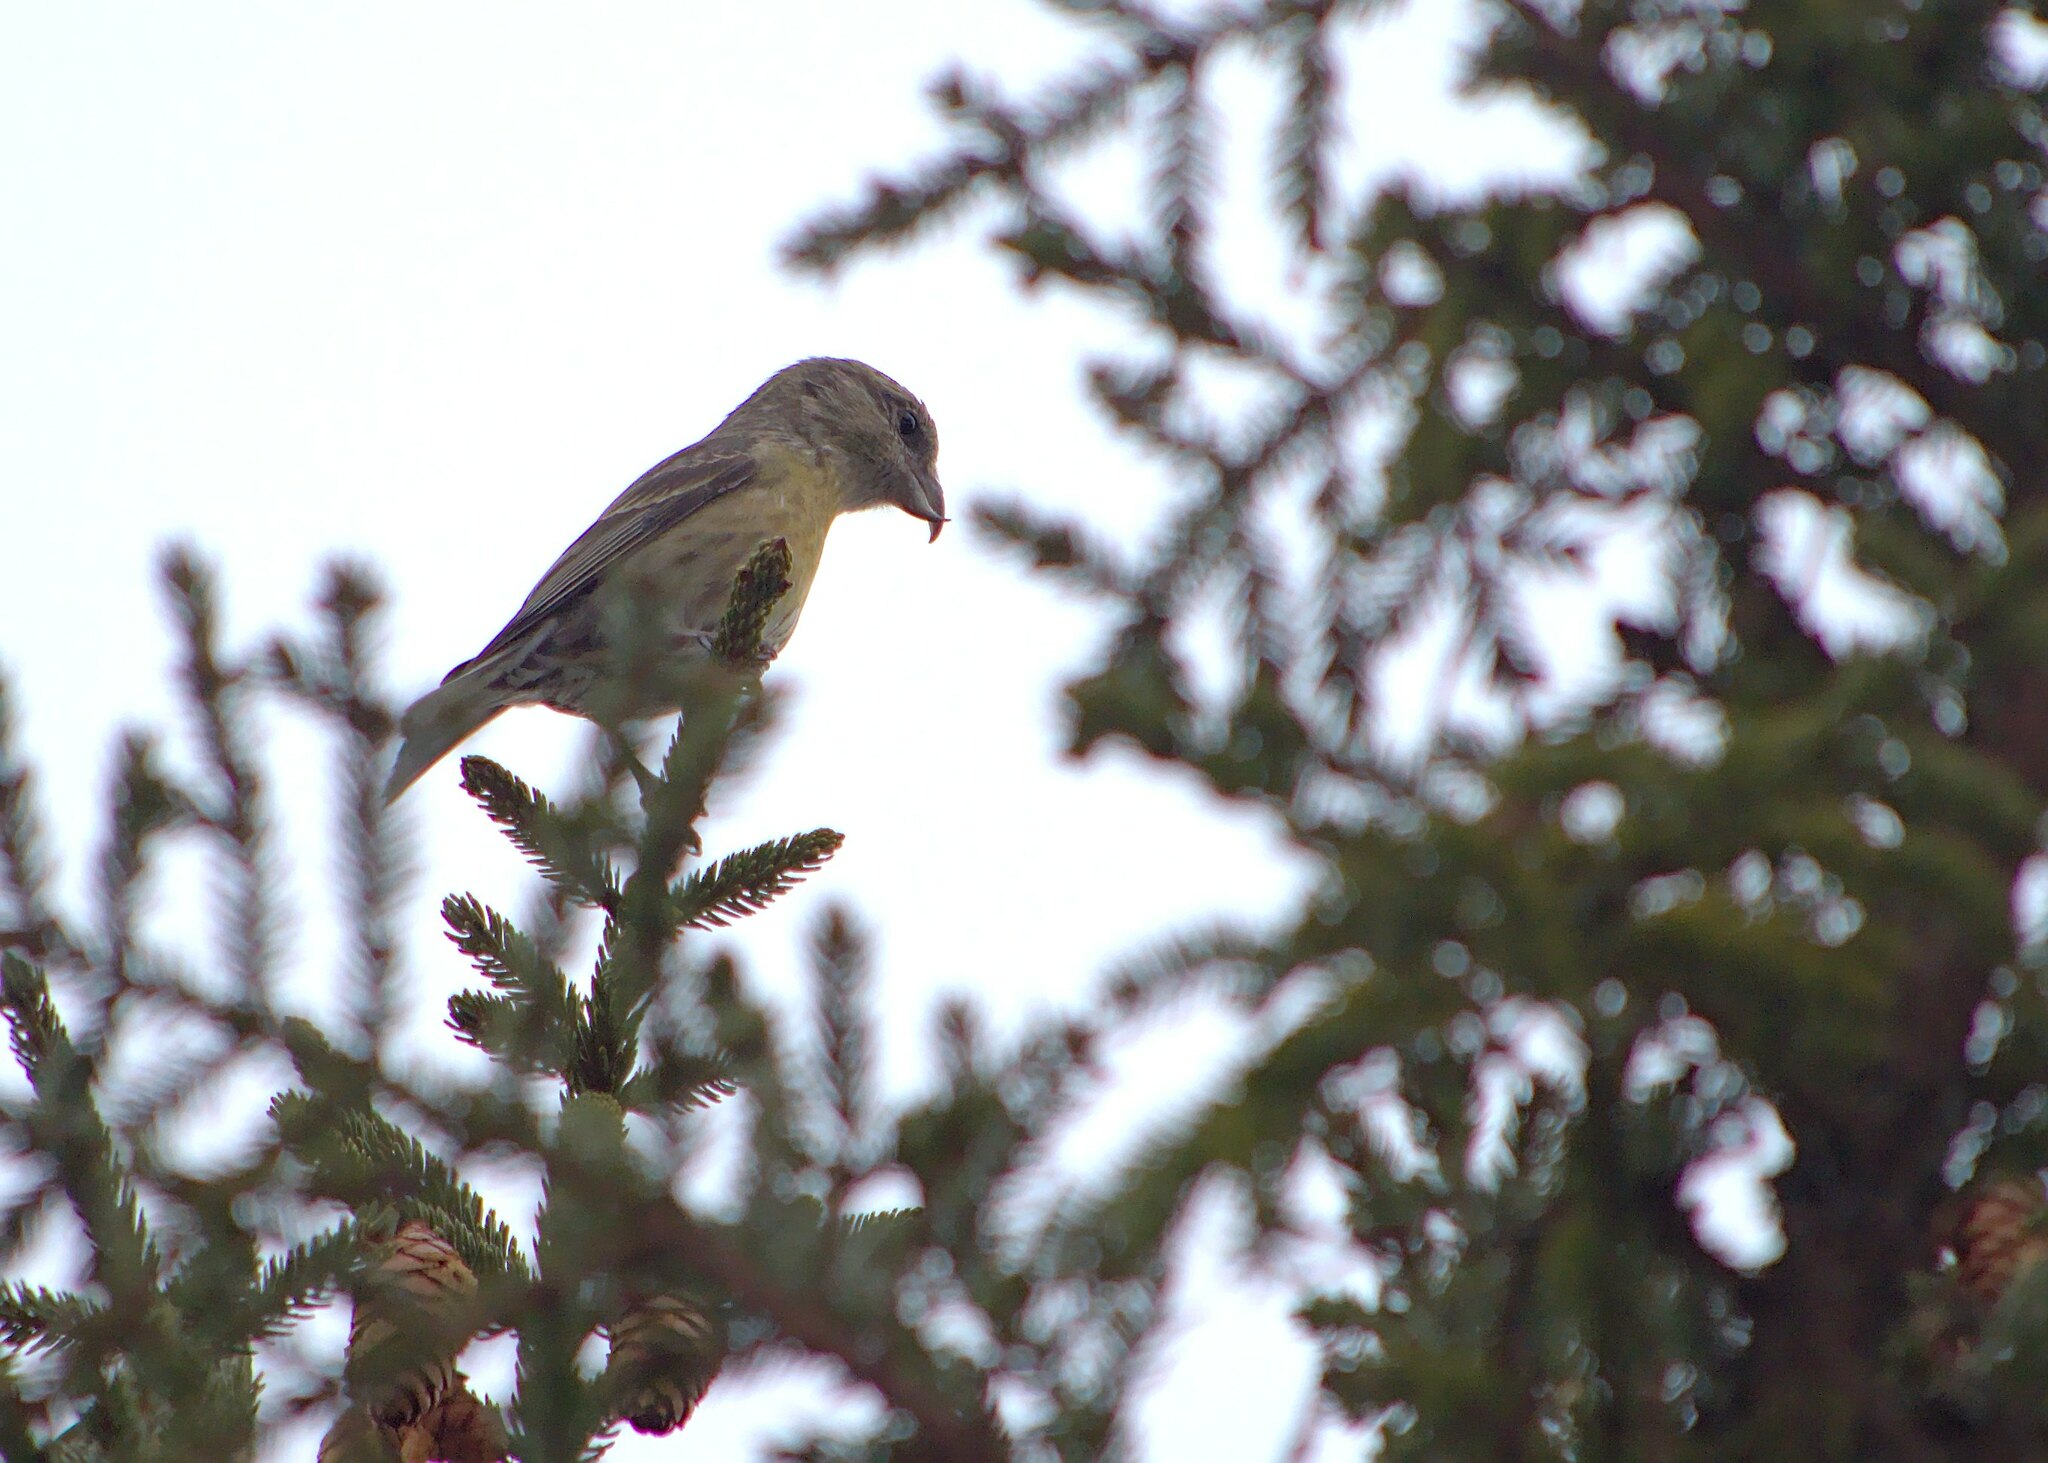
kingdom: Animalia
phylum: Chordata
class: Aves
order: Passeriformes
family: Fringillidae
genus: Loxia
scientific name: Loxia curvirostra
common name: Red crossbill
